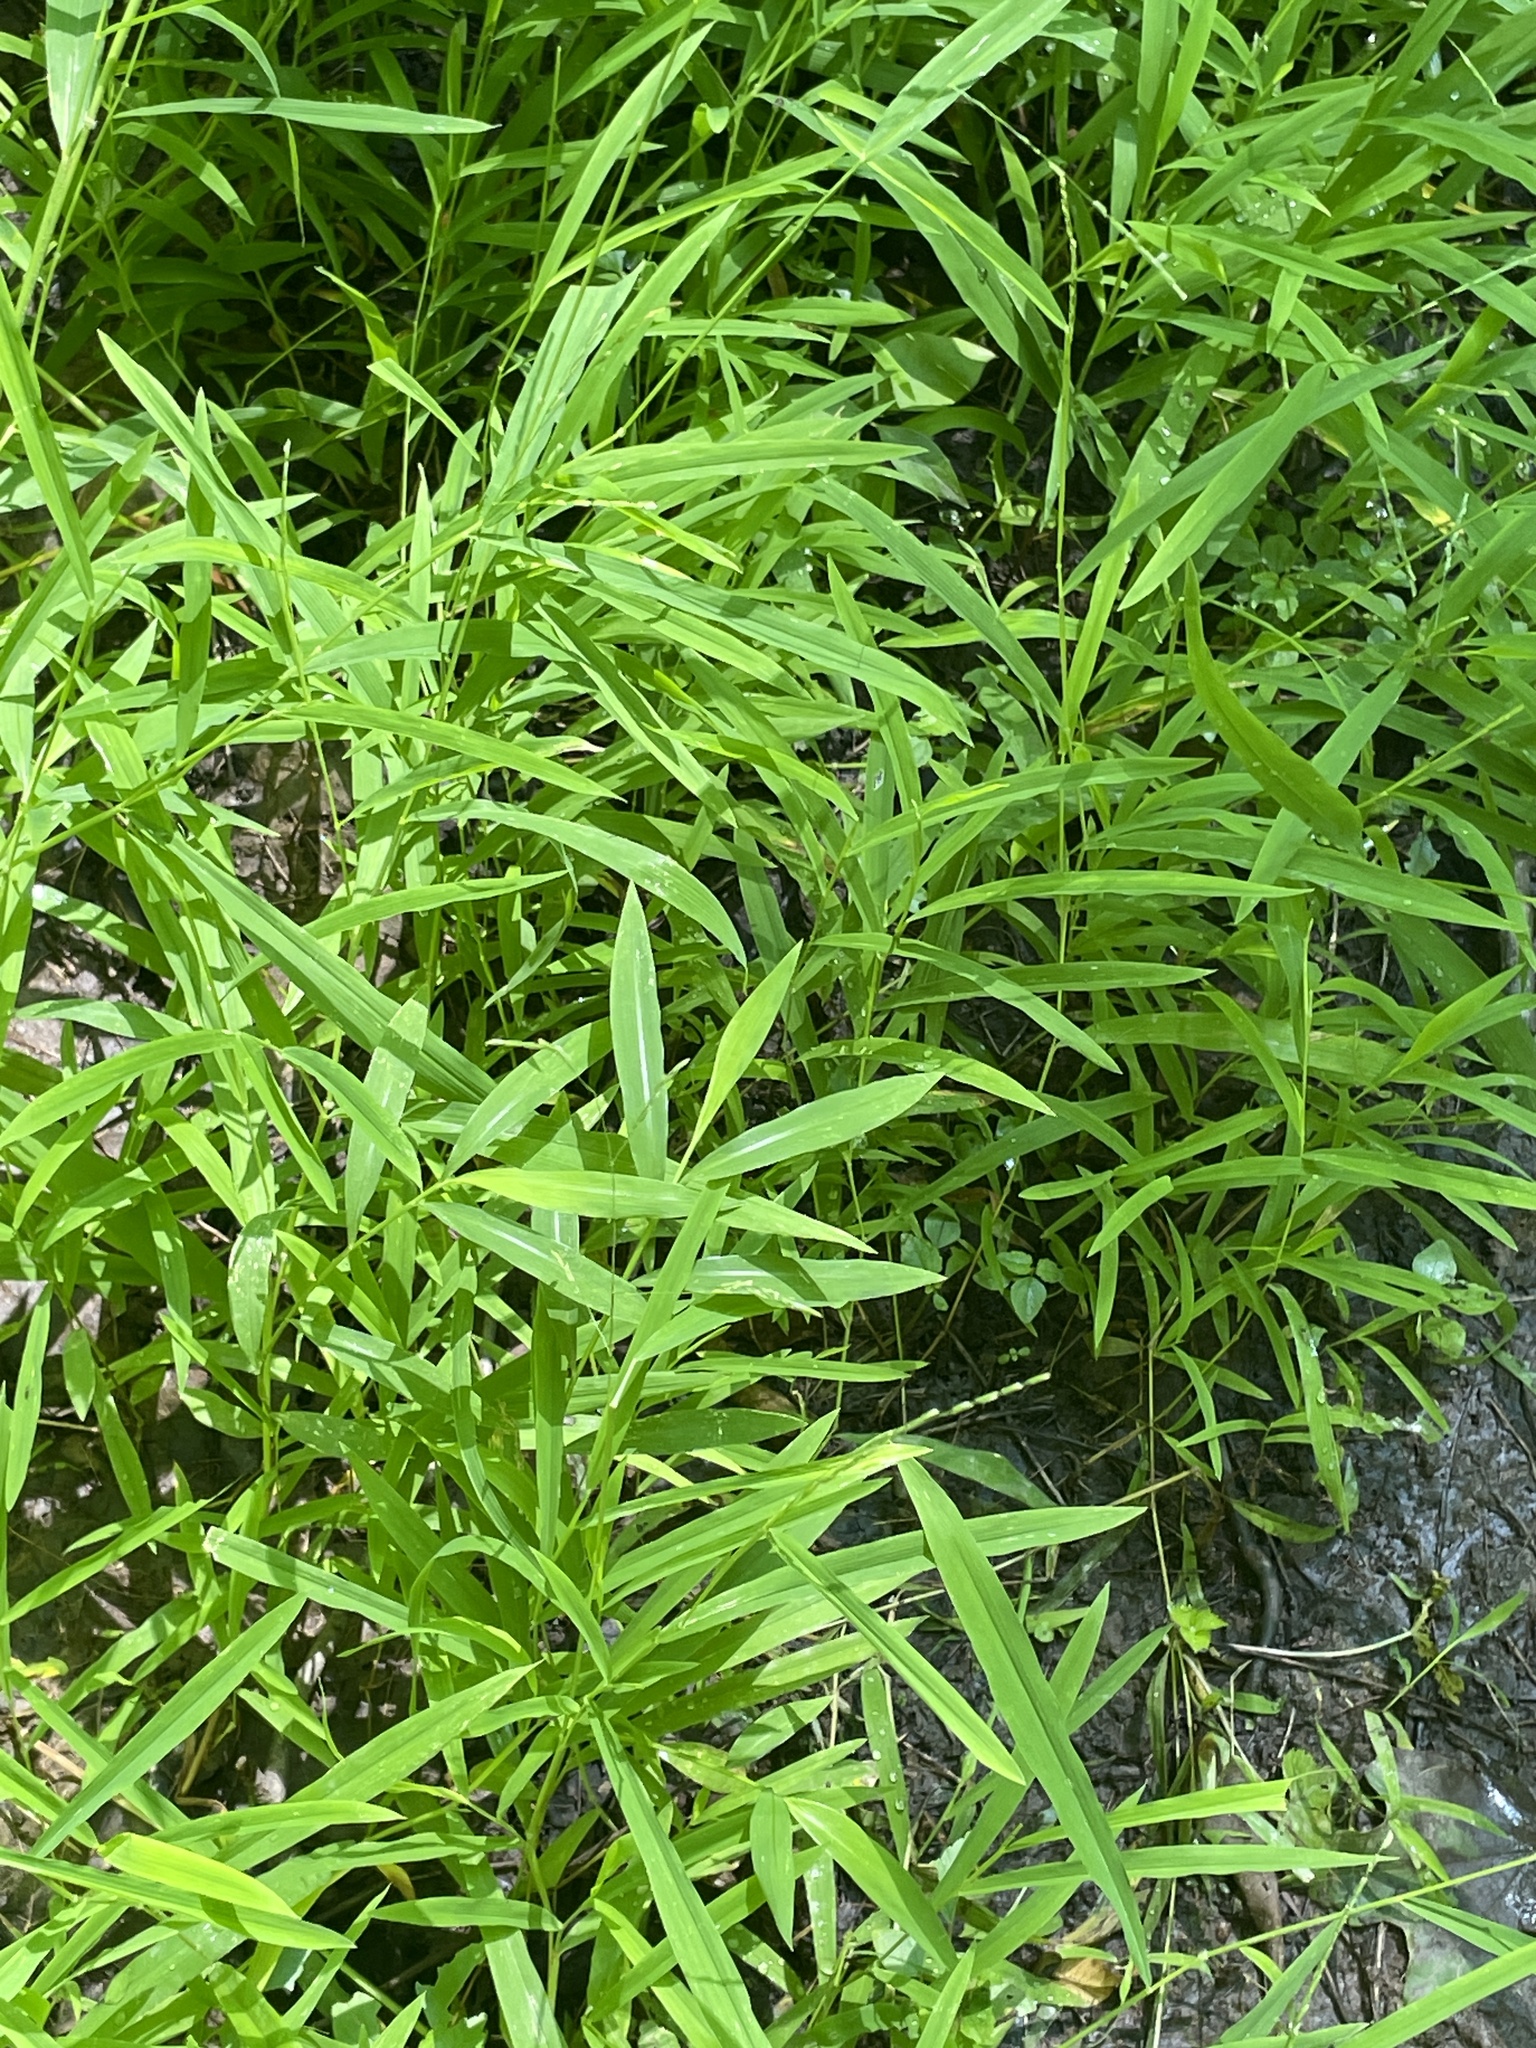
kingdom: Plantae
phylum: Tracheophyta
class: Liliopsida
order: Poales
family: Poaceae
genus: Microstegium
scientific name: Microstegium vimineum
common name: Japanese stiltgrass
